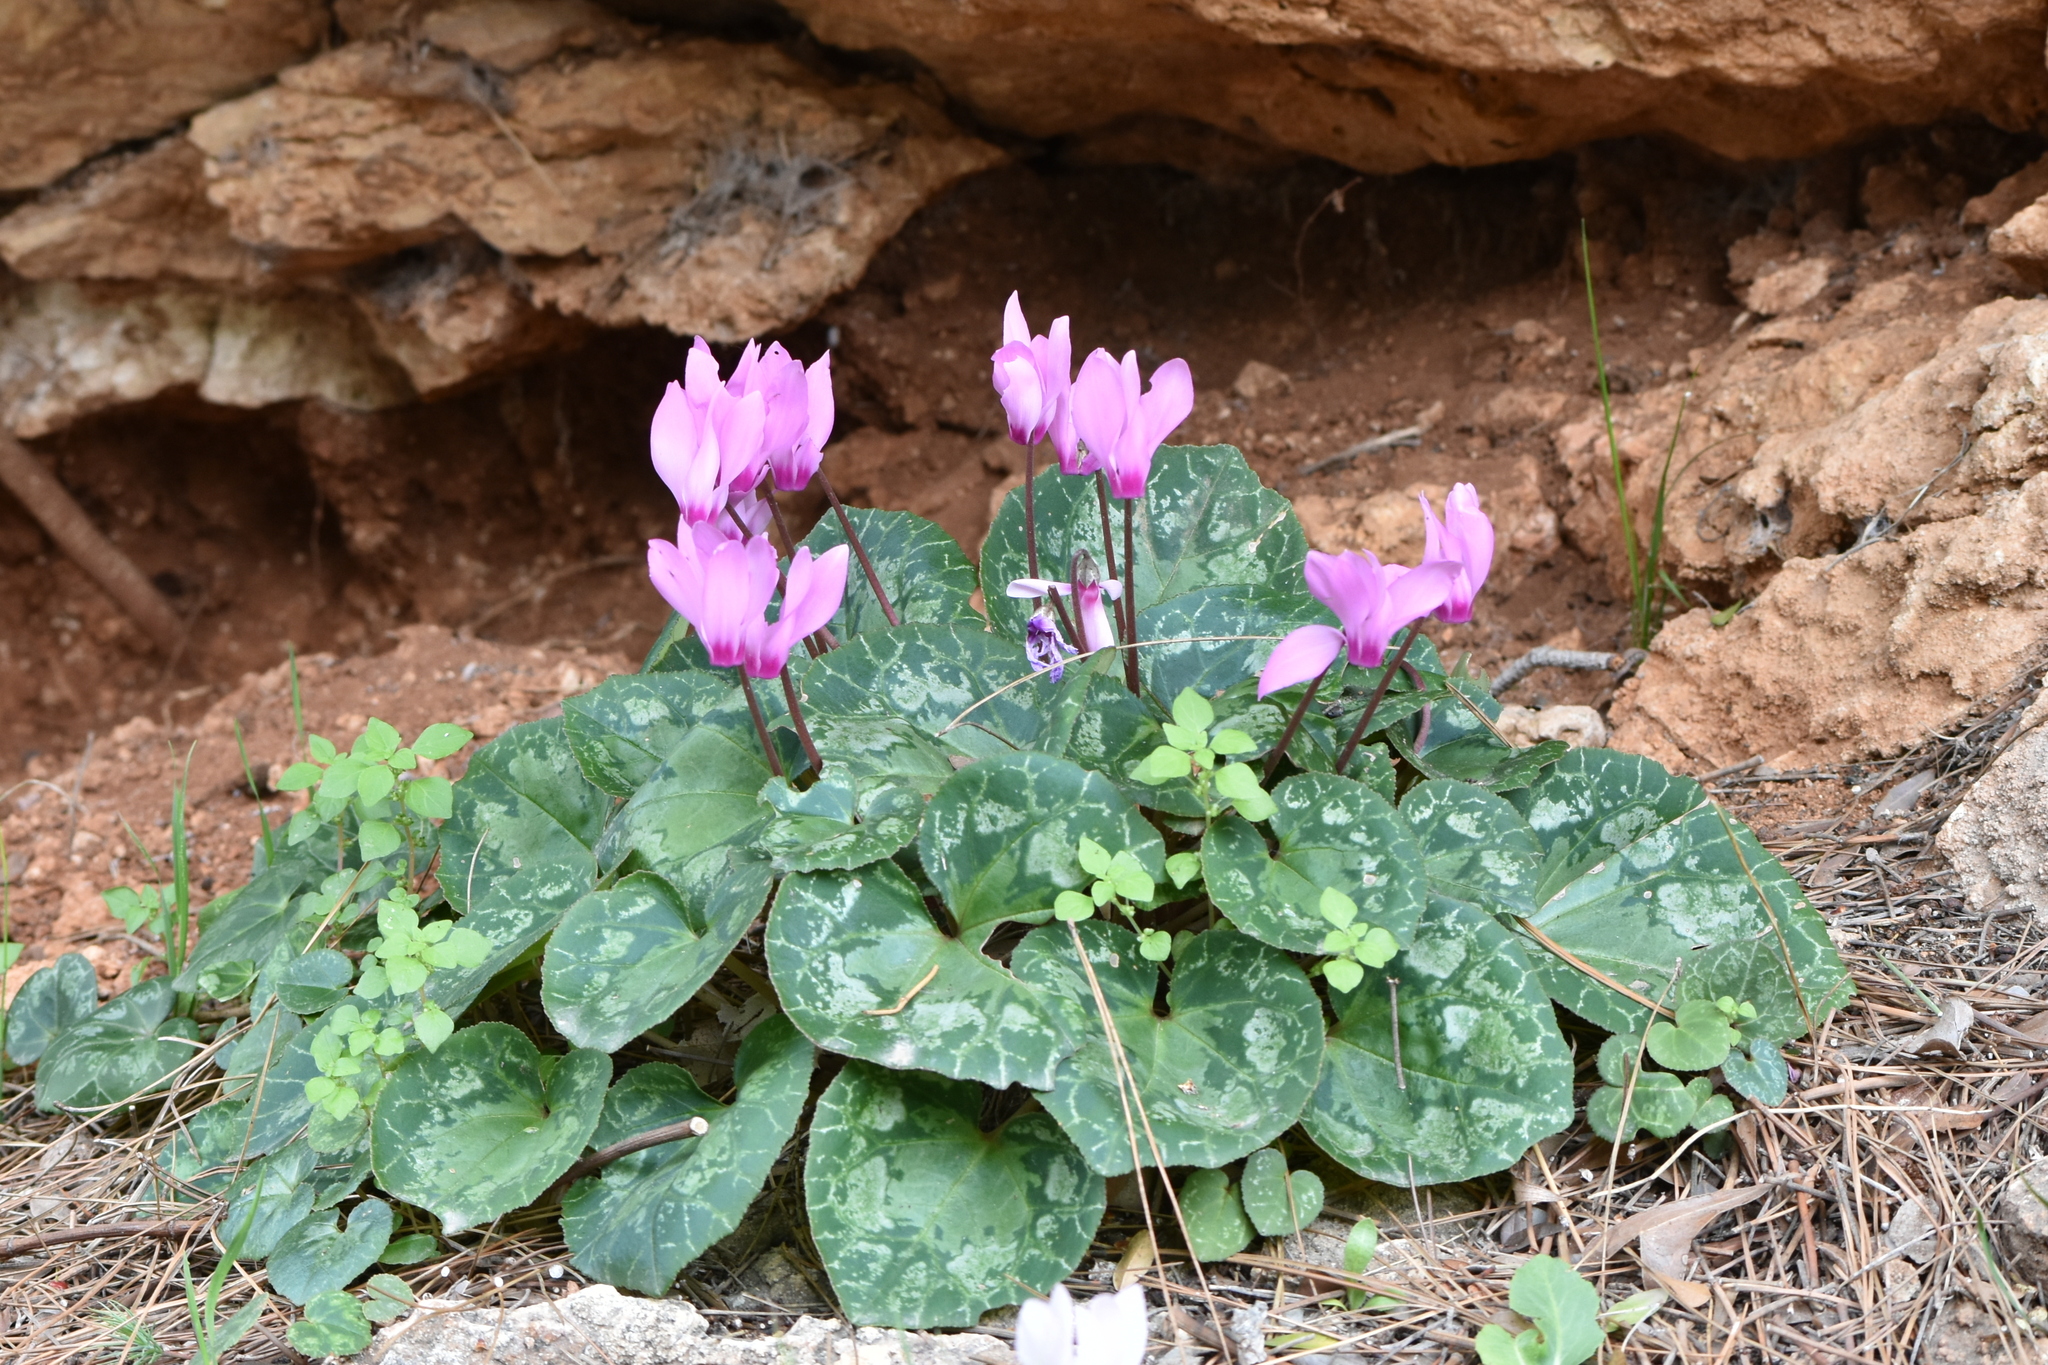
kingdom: Plantae
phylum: Tracheophyta
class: Magnoliopsida
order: Ericales
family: Primulaceae
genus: Cyclamen
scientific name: Cyclamen persicum
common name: Florist's cyclamen
